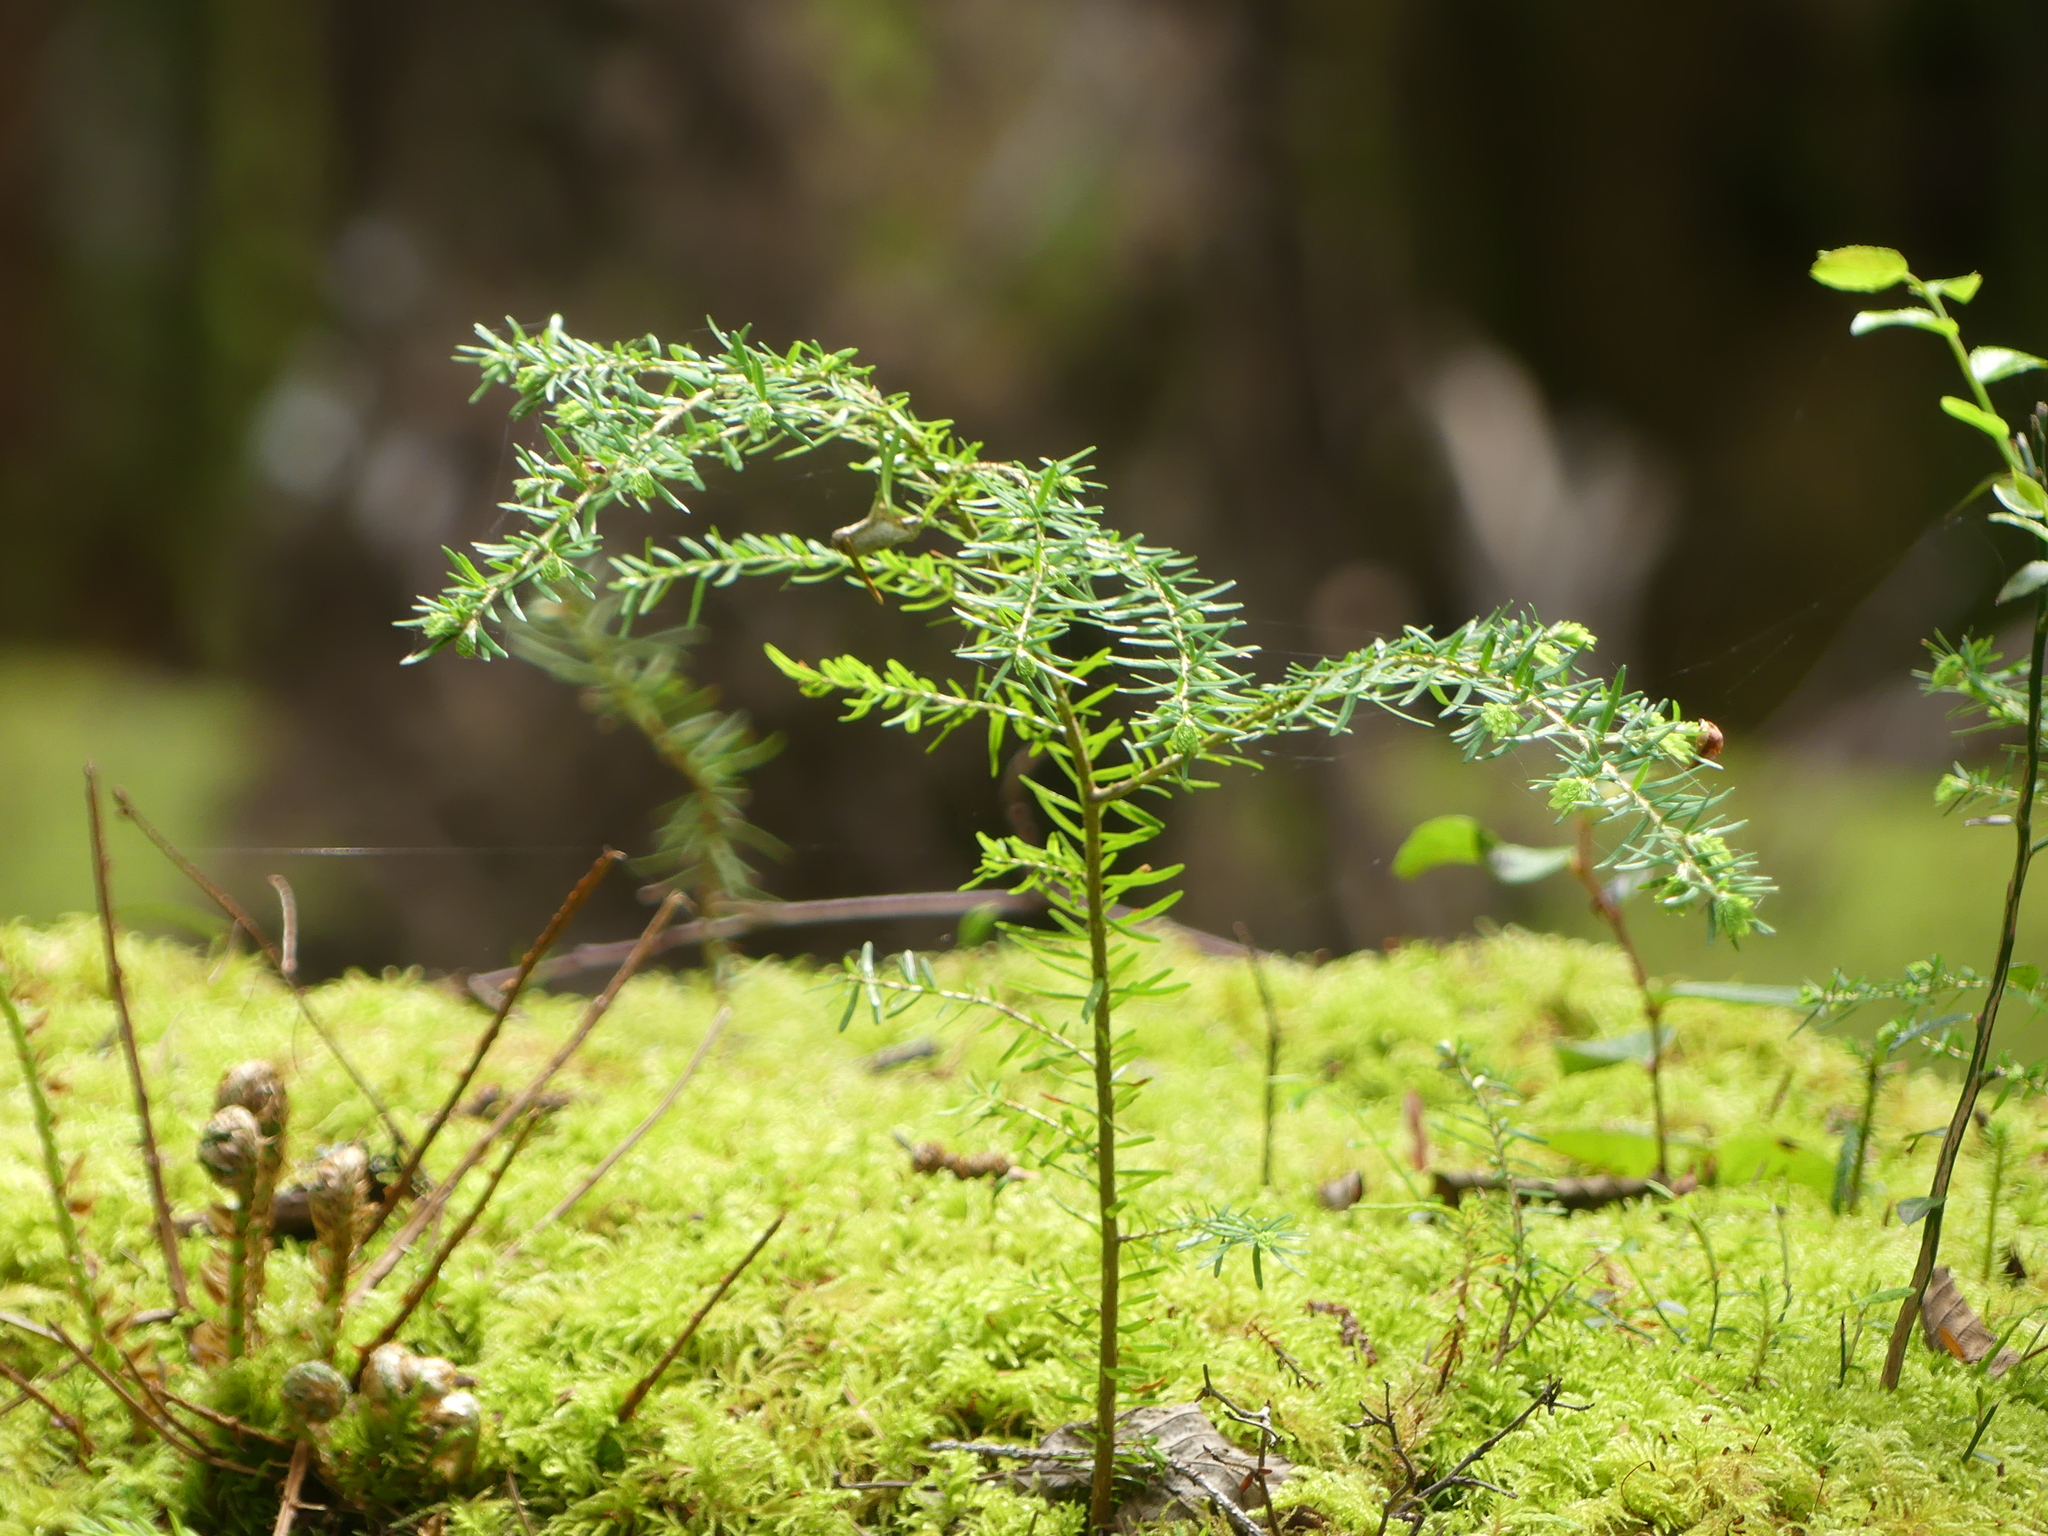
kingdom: Plantae
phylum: Tracheophyta
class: Pinopsida
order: Pinales
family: Pinaceae
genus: Tsuga
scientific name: Tsuga heterophylla
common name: Western hemlock
